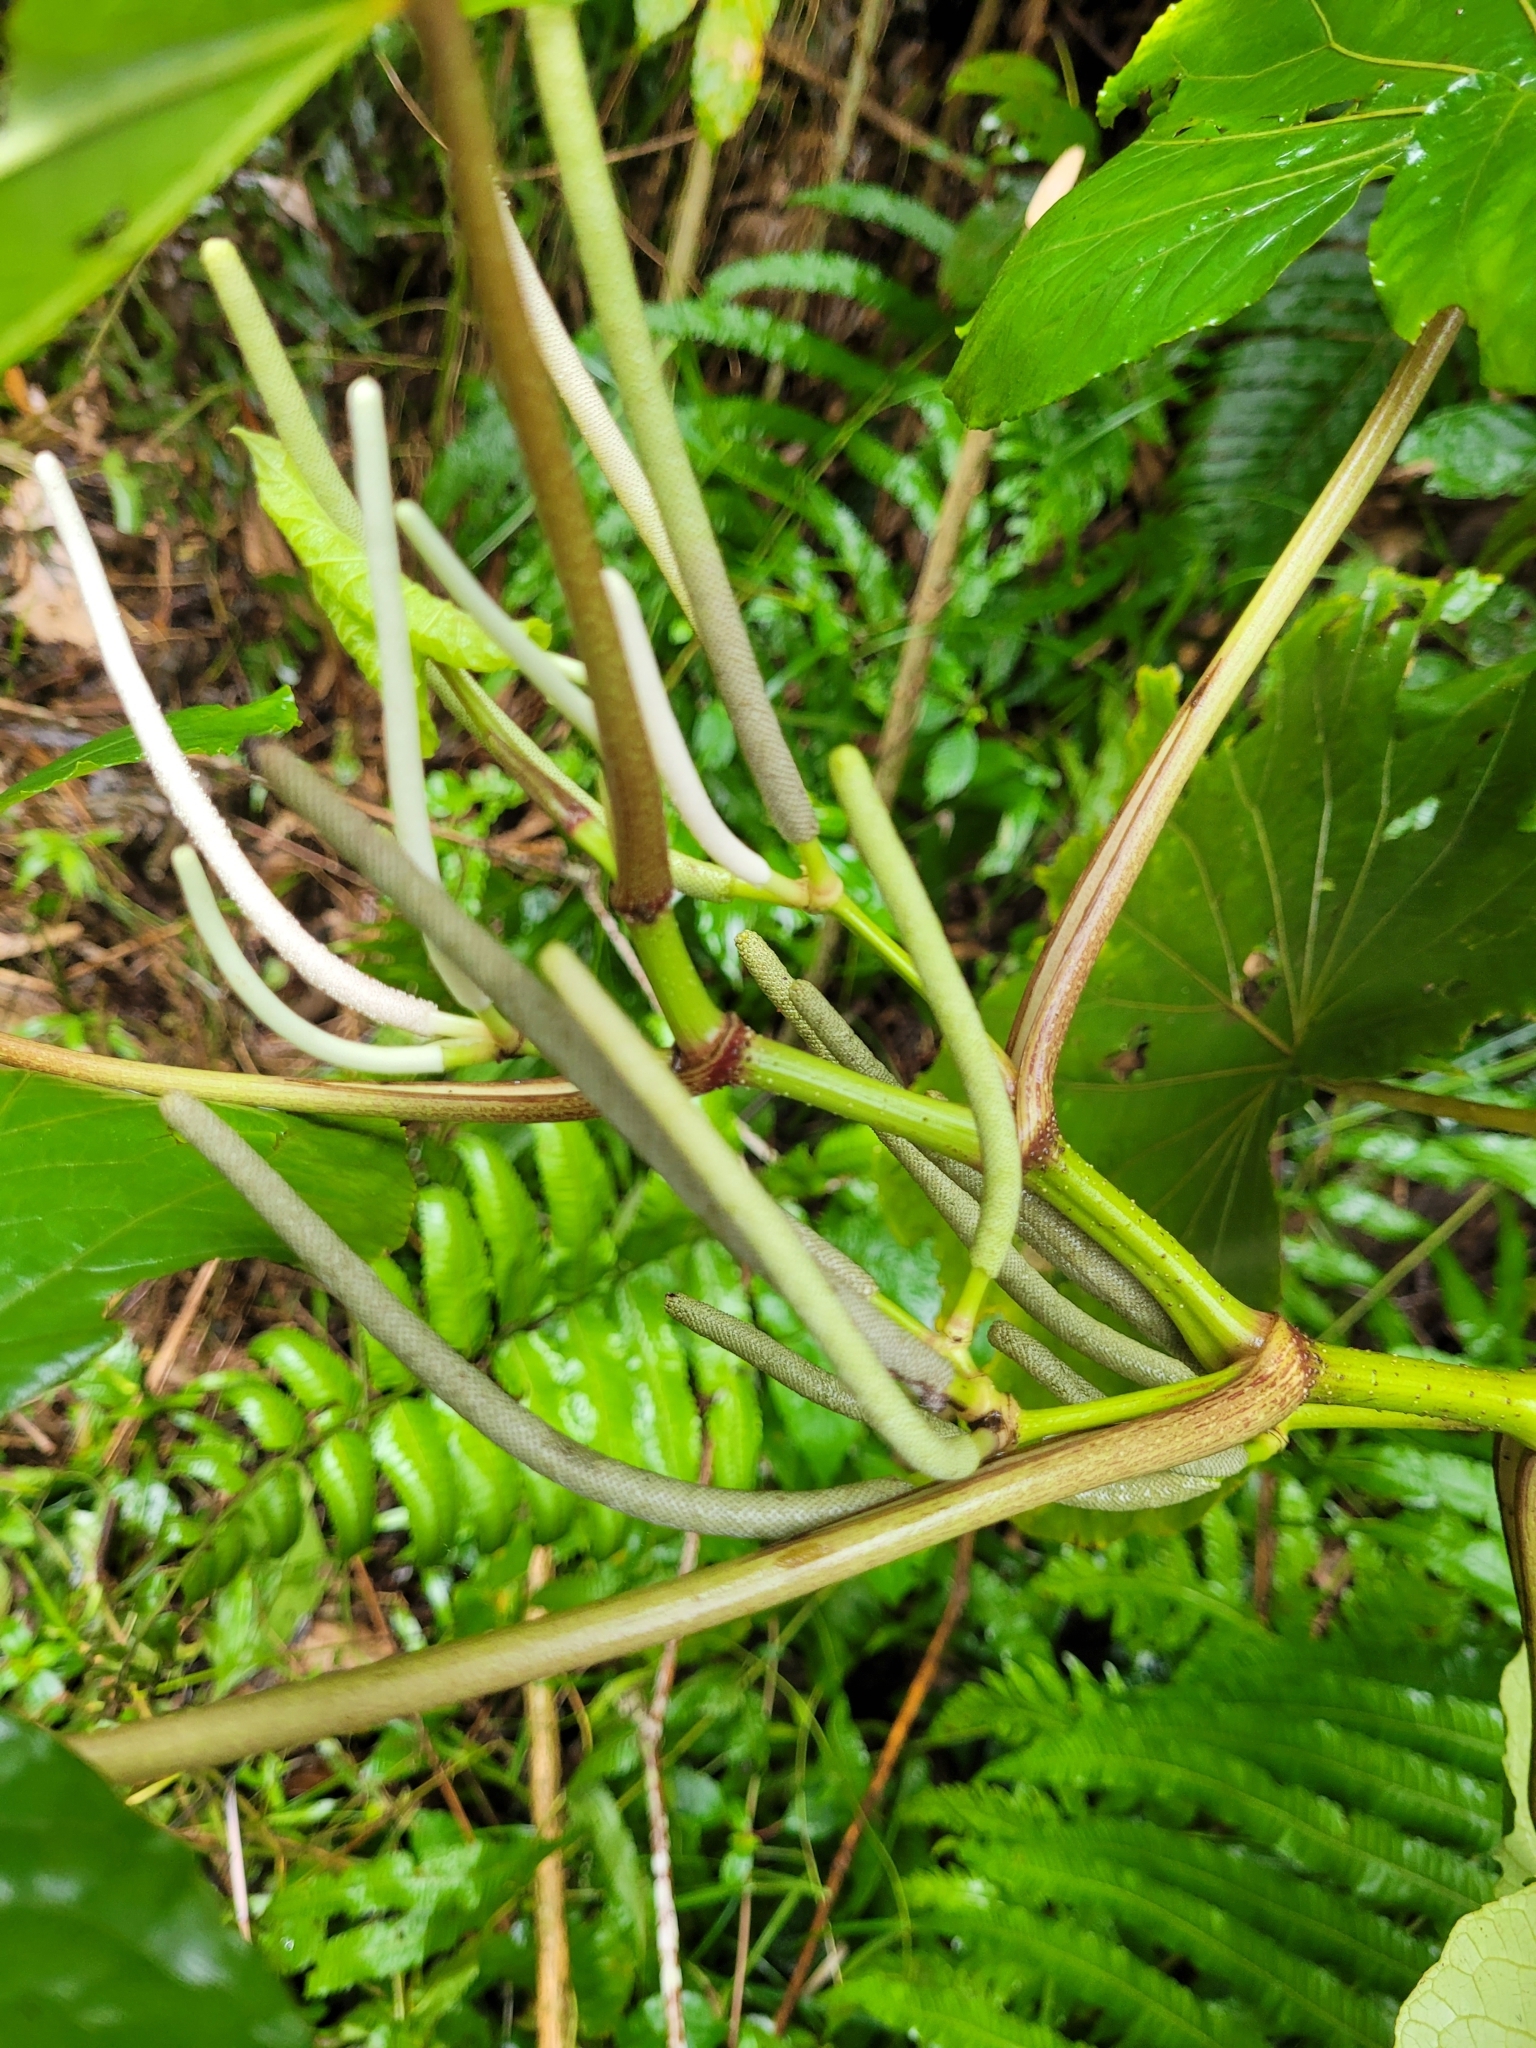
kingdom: Plantae
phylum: Tracheophyta
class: Magnoliopsida
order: Piperales
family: Piperaceae
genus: Piper
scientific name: Piper umbellatum
